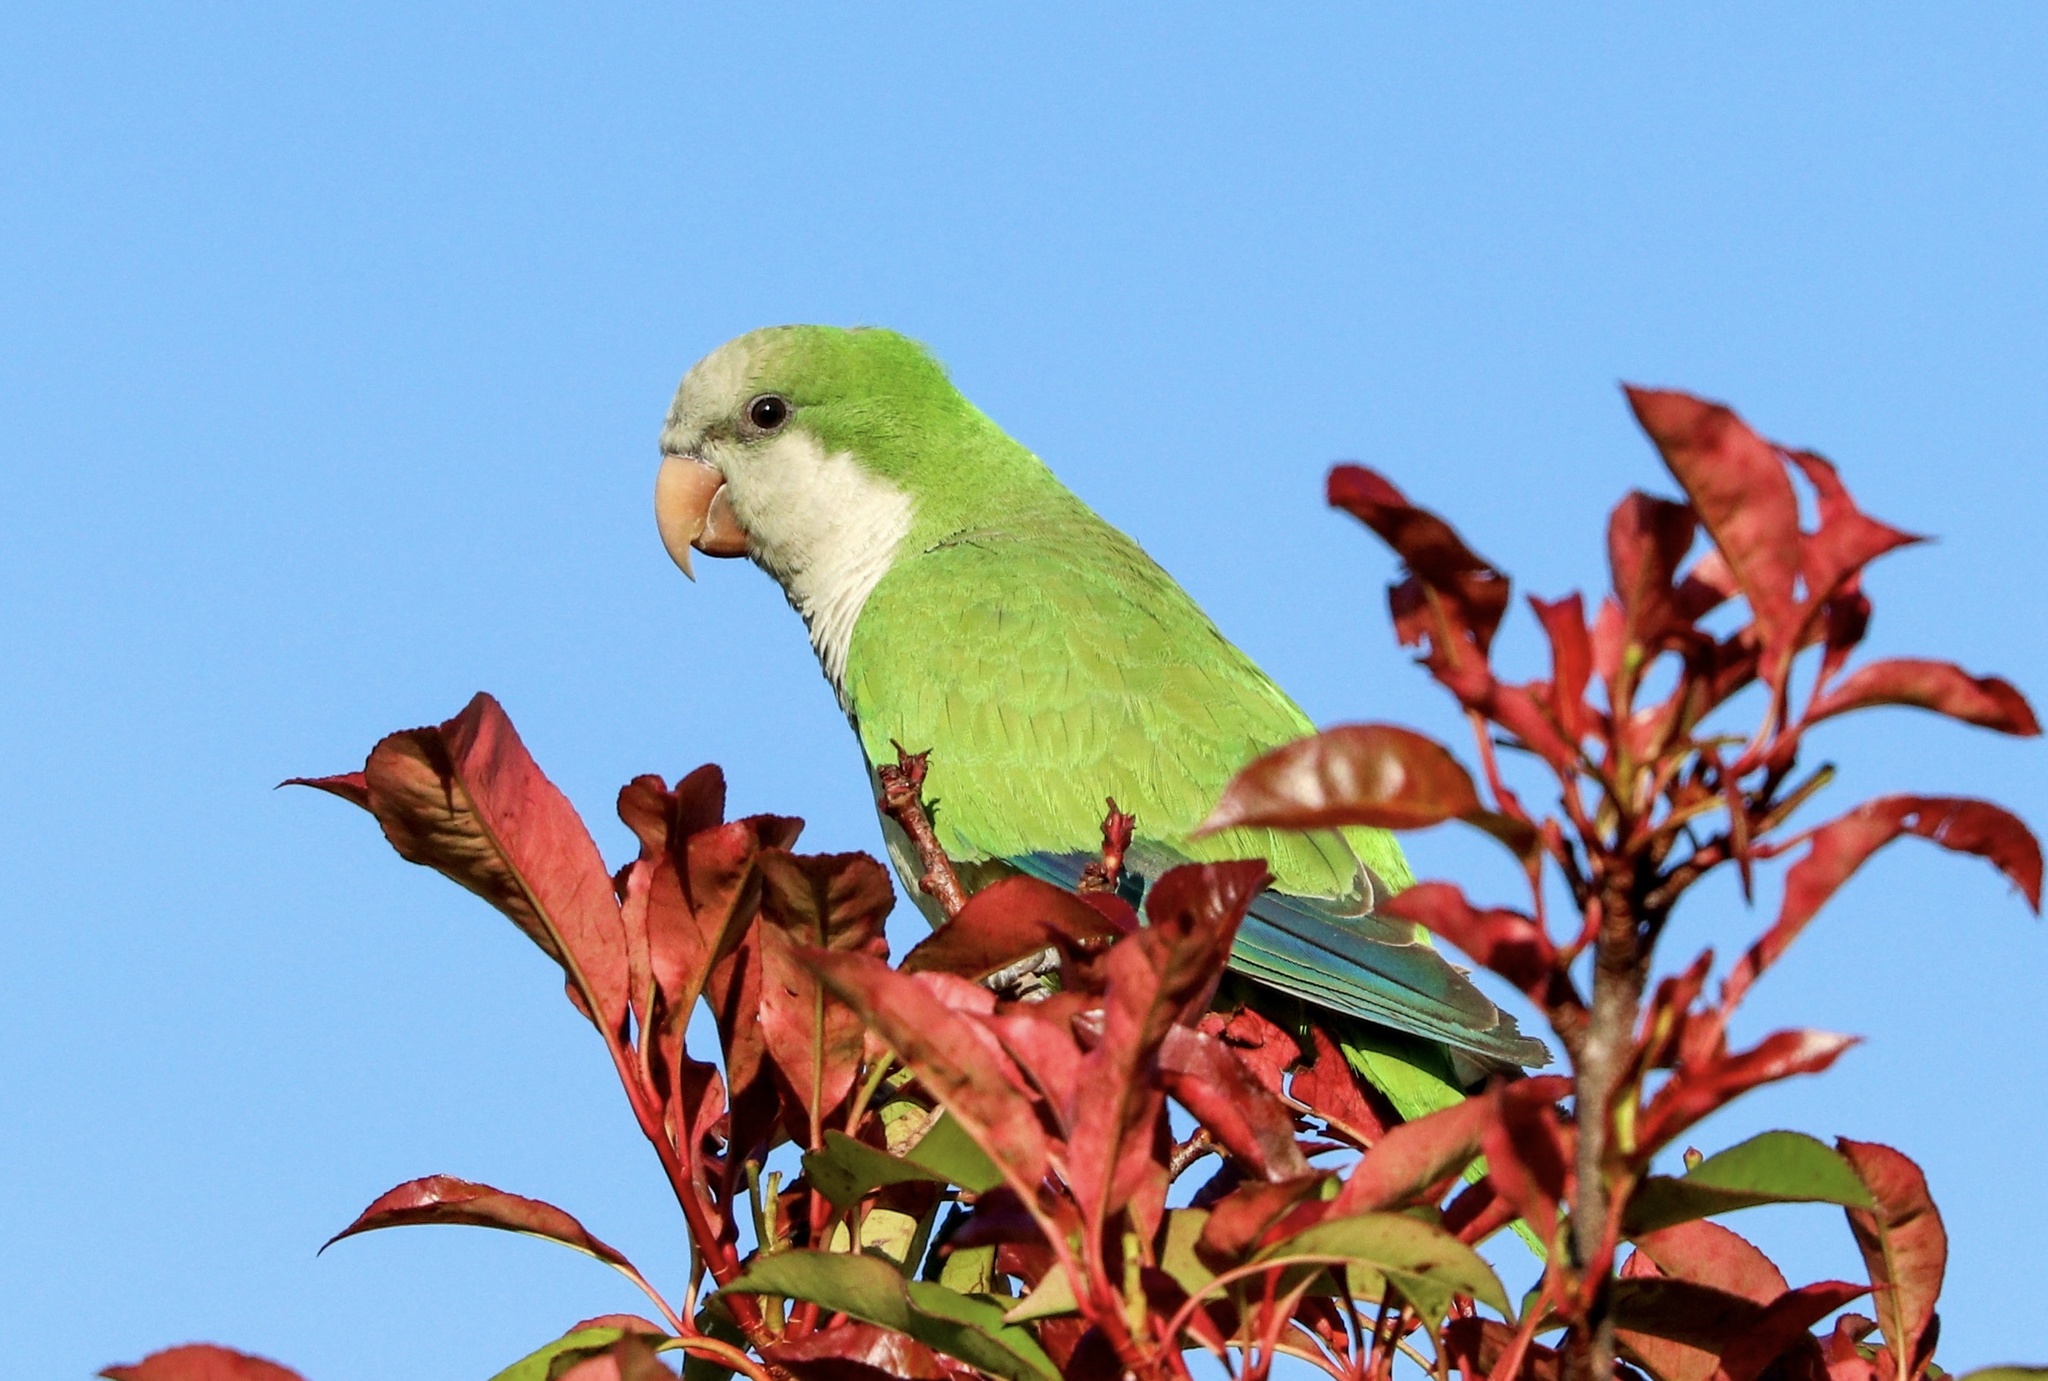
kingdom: Animalia
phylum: Chordata
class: Aves
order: Psittaciformes
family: Psittacidae
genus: Myiopsitta
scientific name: Myiopsitta monachus
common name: Monk parakeet
